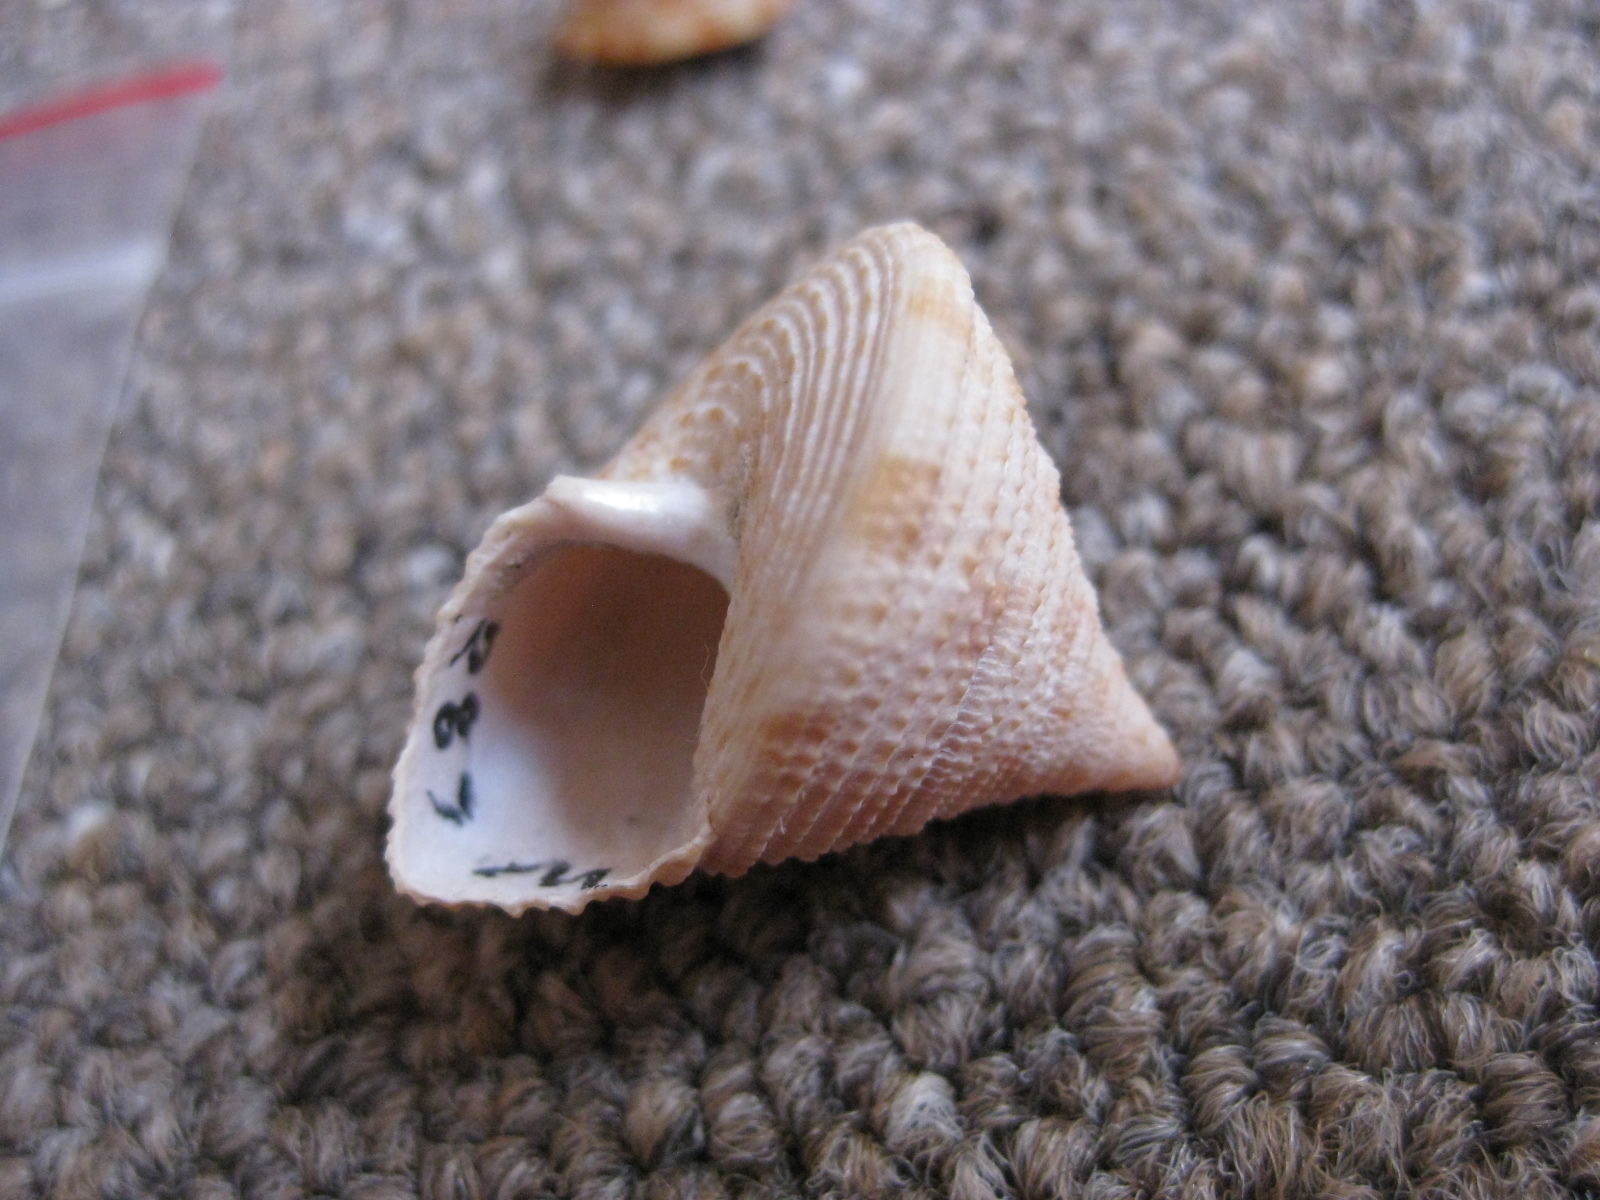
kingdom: Animalia
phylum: Mollusca
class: Gastropoda
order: Trochida
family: Calliostomatidae
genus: Maurea
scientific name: Maurea pellucida
